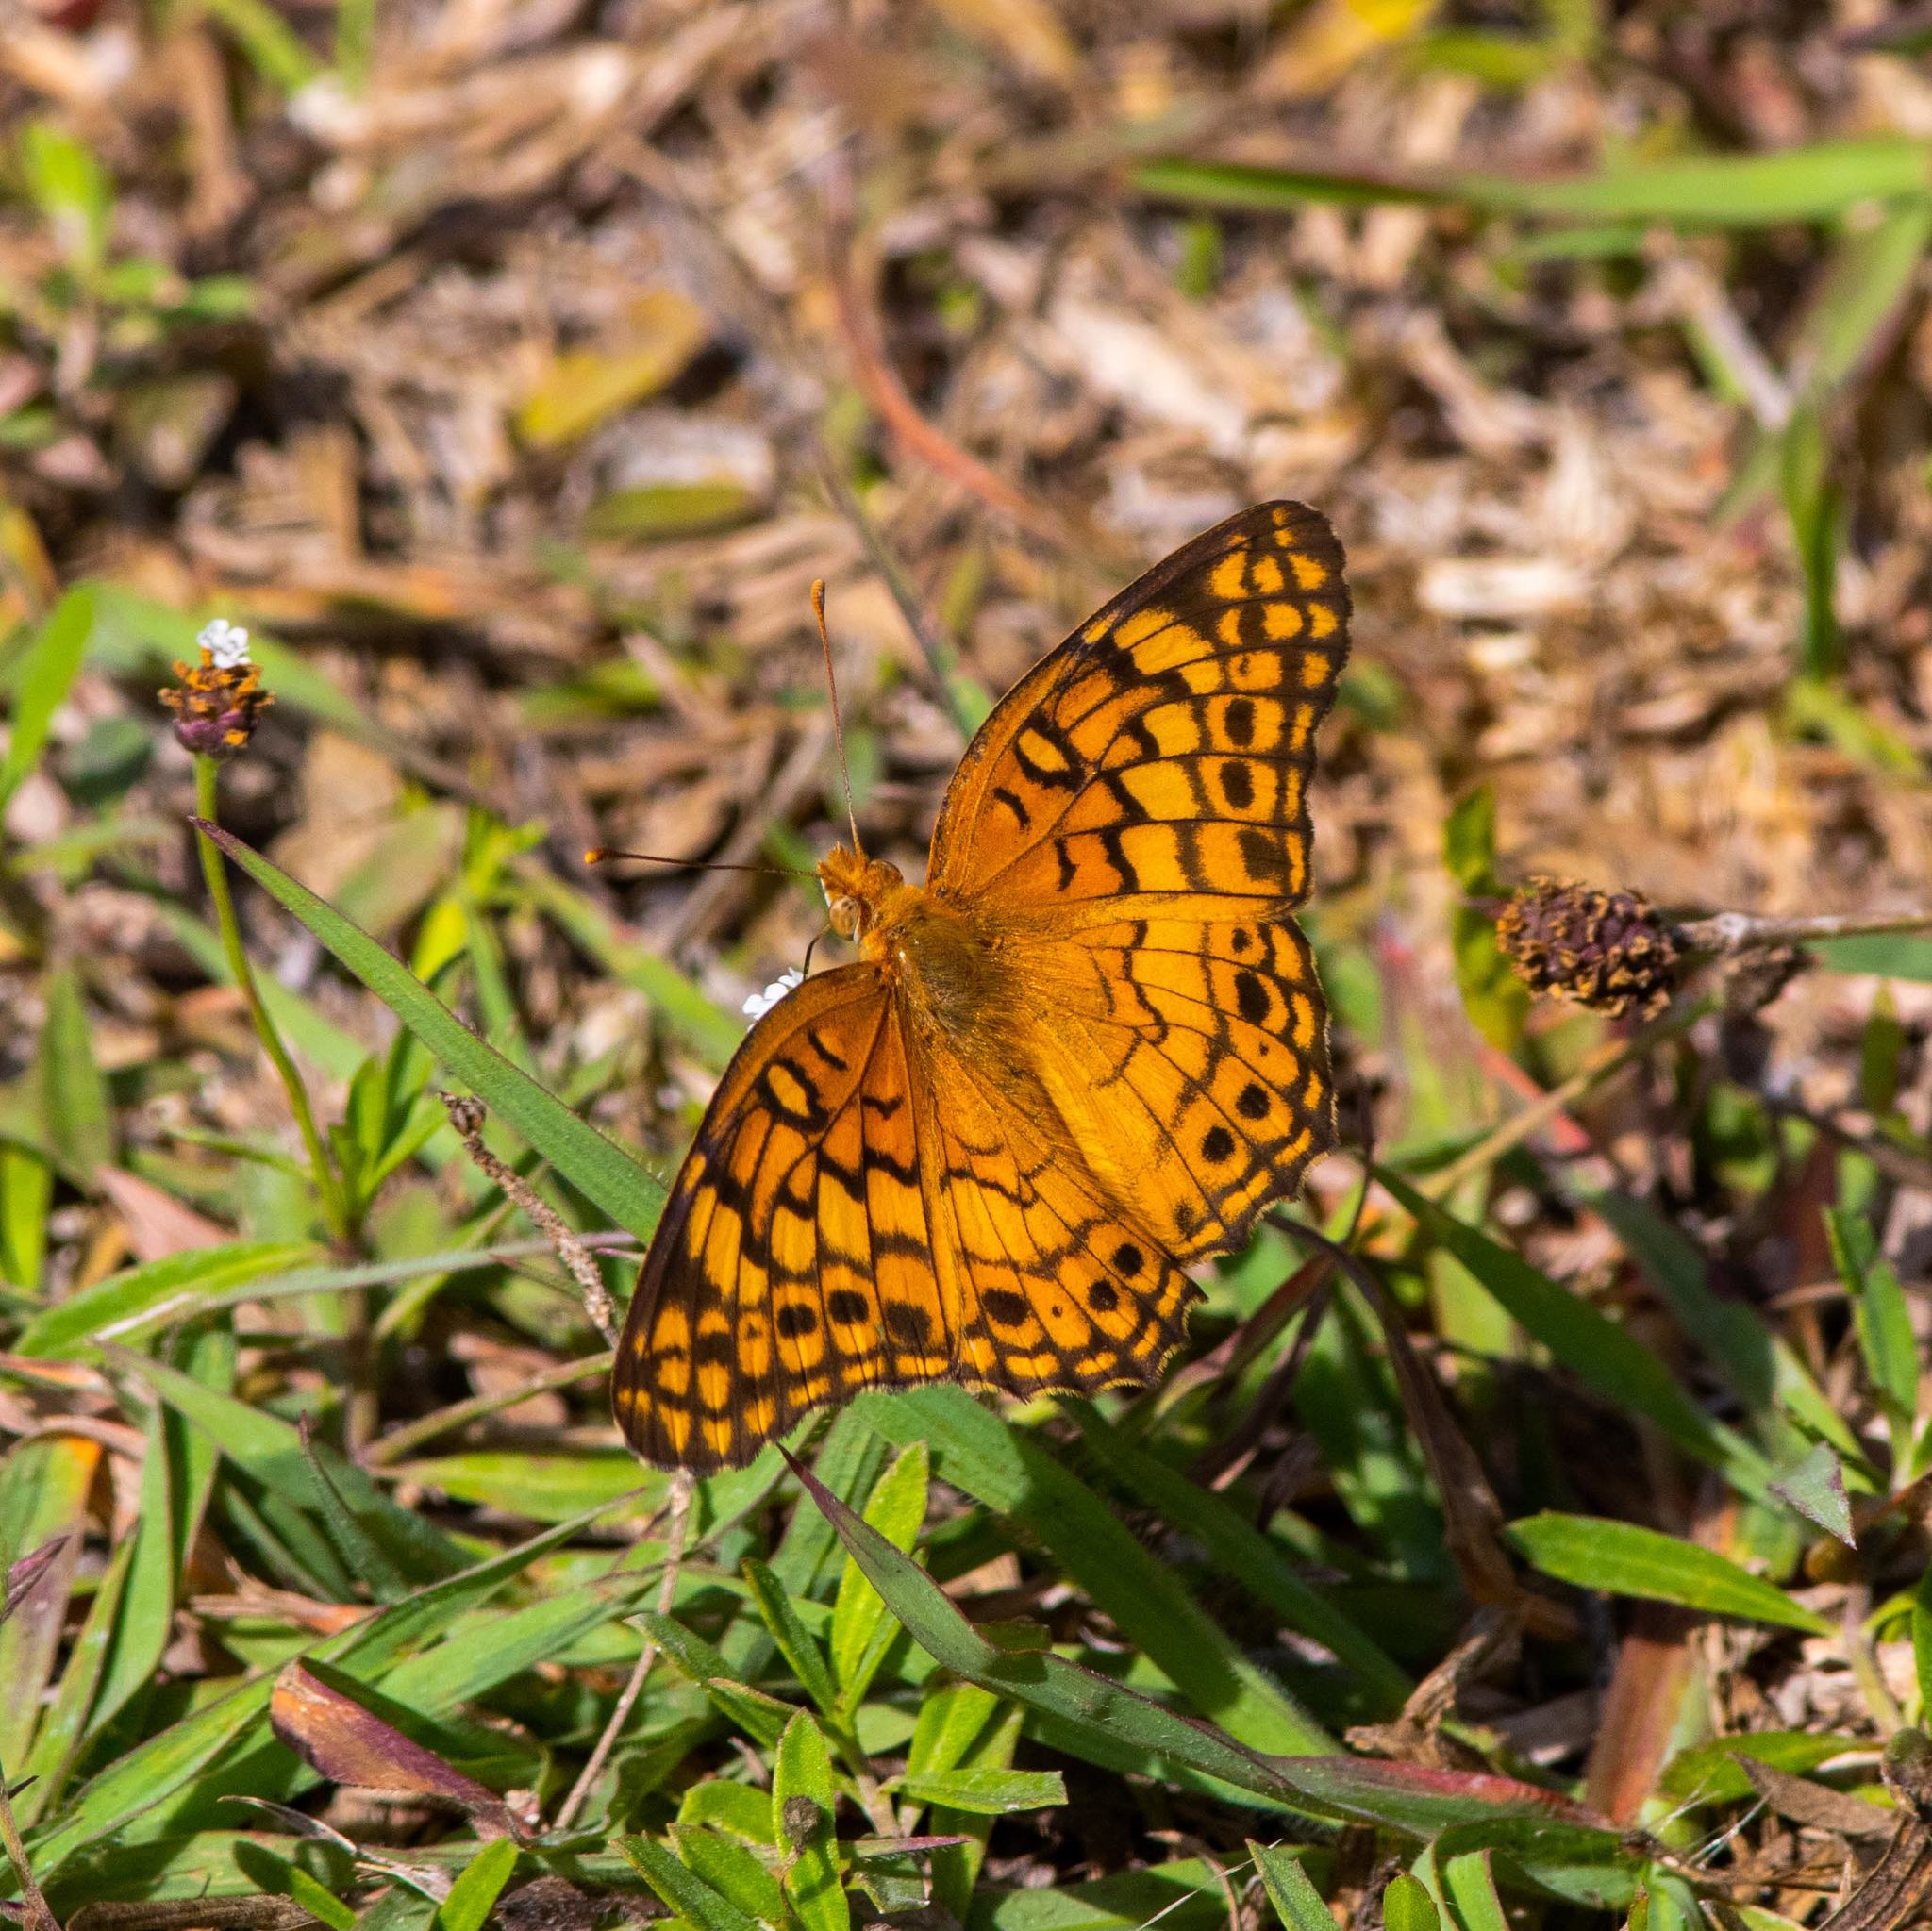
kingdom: Animalia
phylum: Arthropoda
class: Insecta
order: Lepidoptera
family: Nymphalidae
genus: Euptoieta
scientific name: Euptoieta claudia
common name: Variegated fritillary
